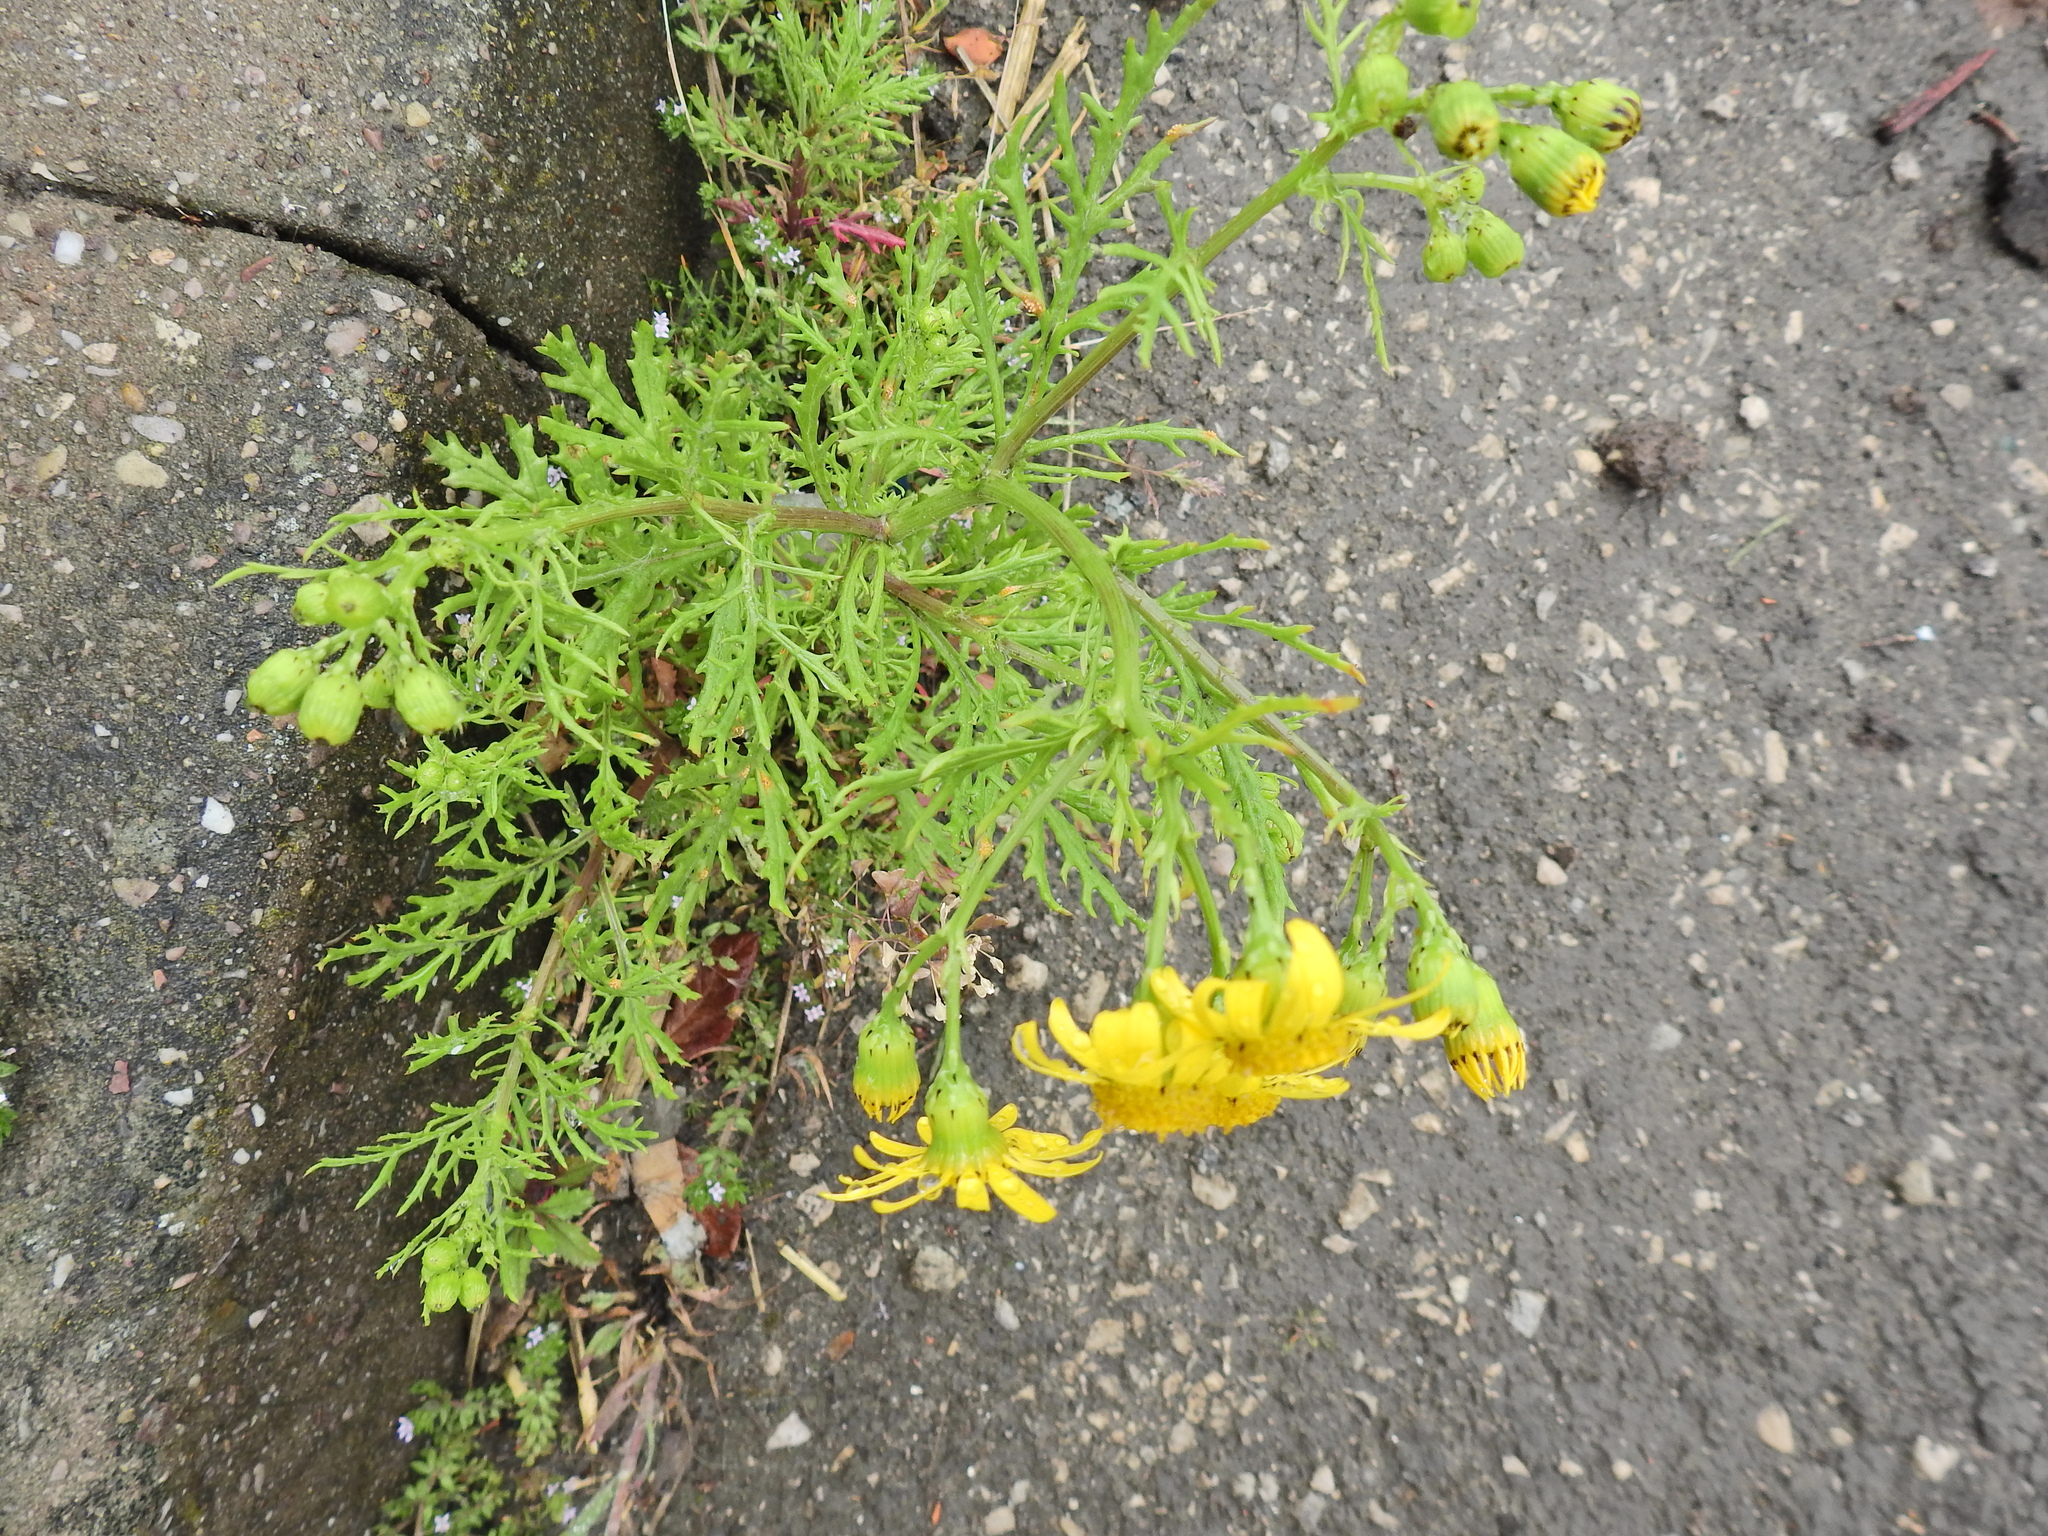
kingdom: Plantae
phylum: Tracheophyta
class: Magnoliopsida
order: Asterales
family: Asteraceae
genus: Senecio
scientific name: Senecio squalidus
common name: Oxford ragwort
